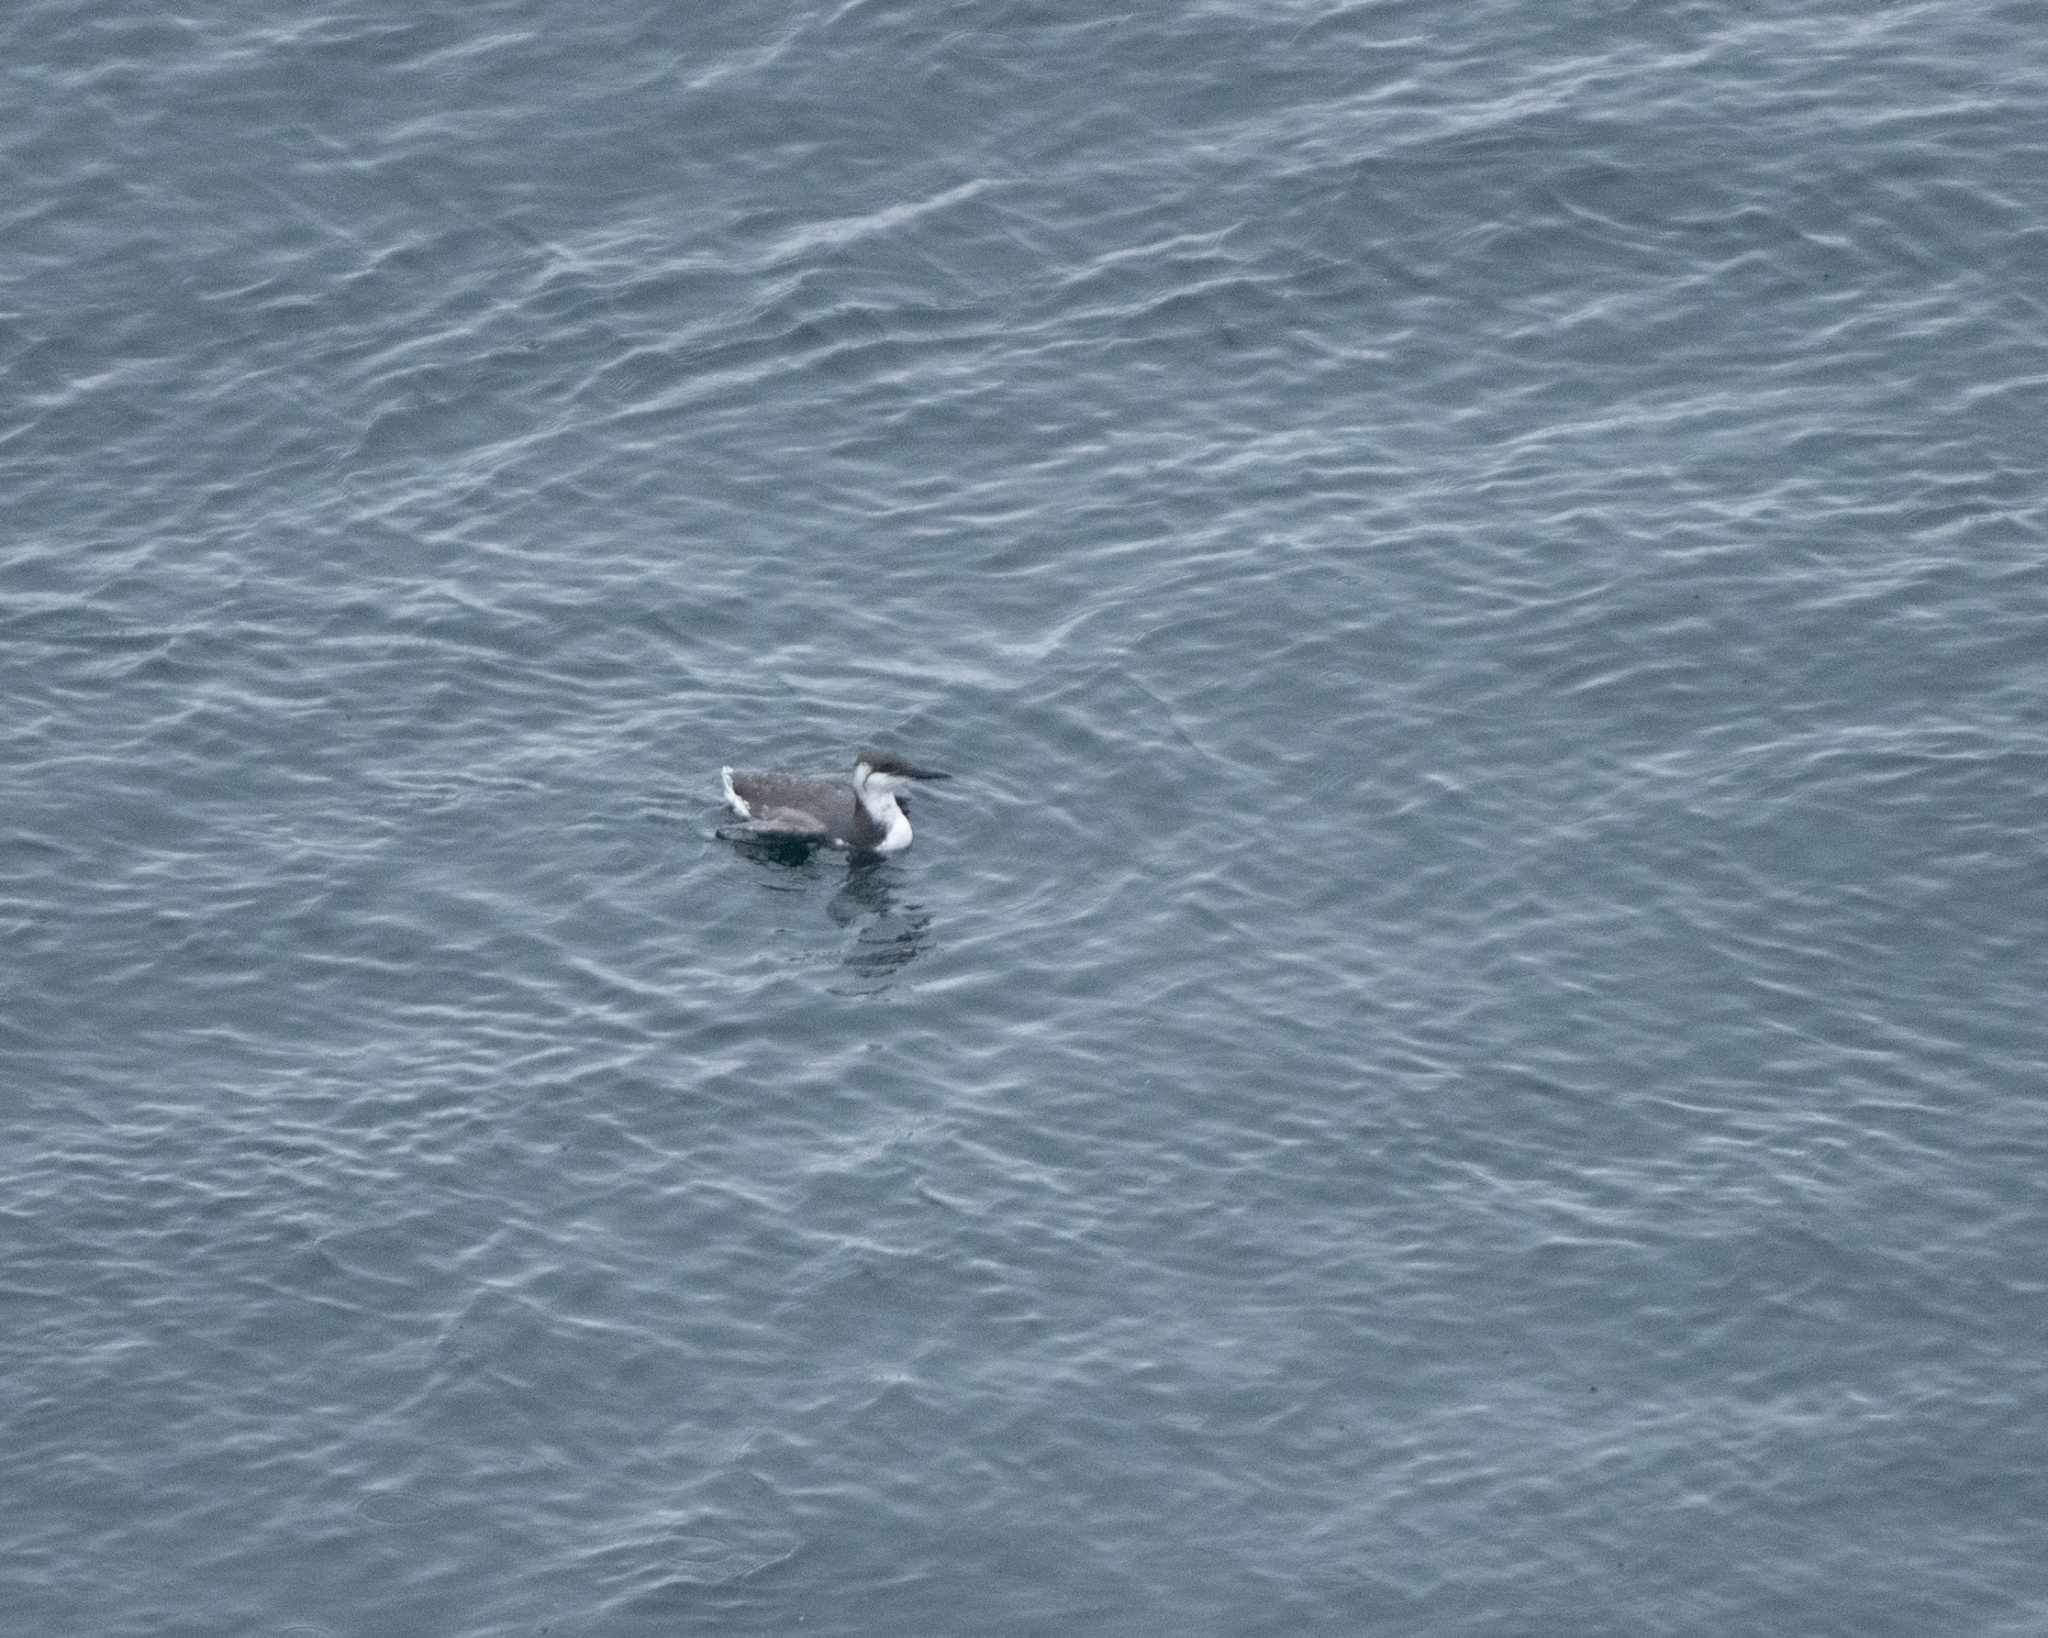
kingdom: Animalia
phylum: Chordata
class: Aves
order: Charadriiformes
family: Alcidae
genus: Uria
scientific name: Uria aalge
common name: Common murre
